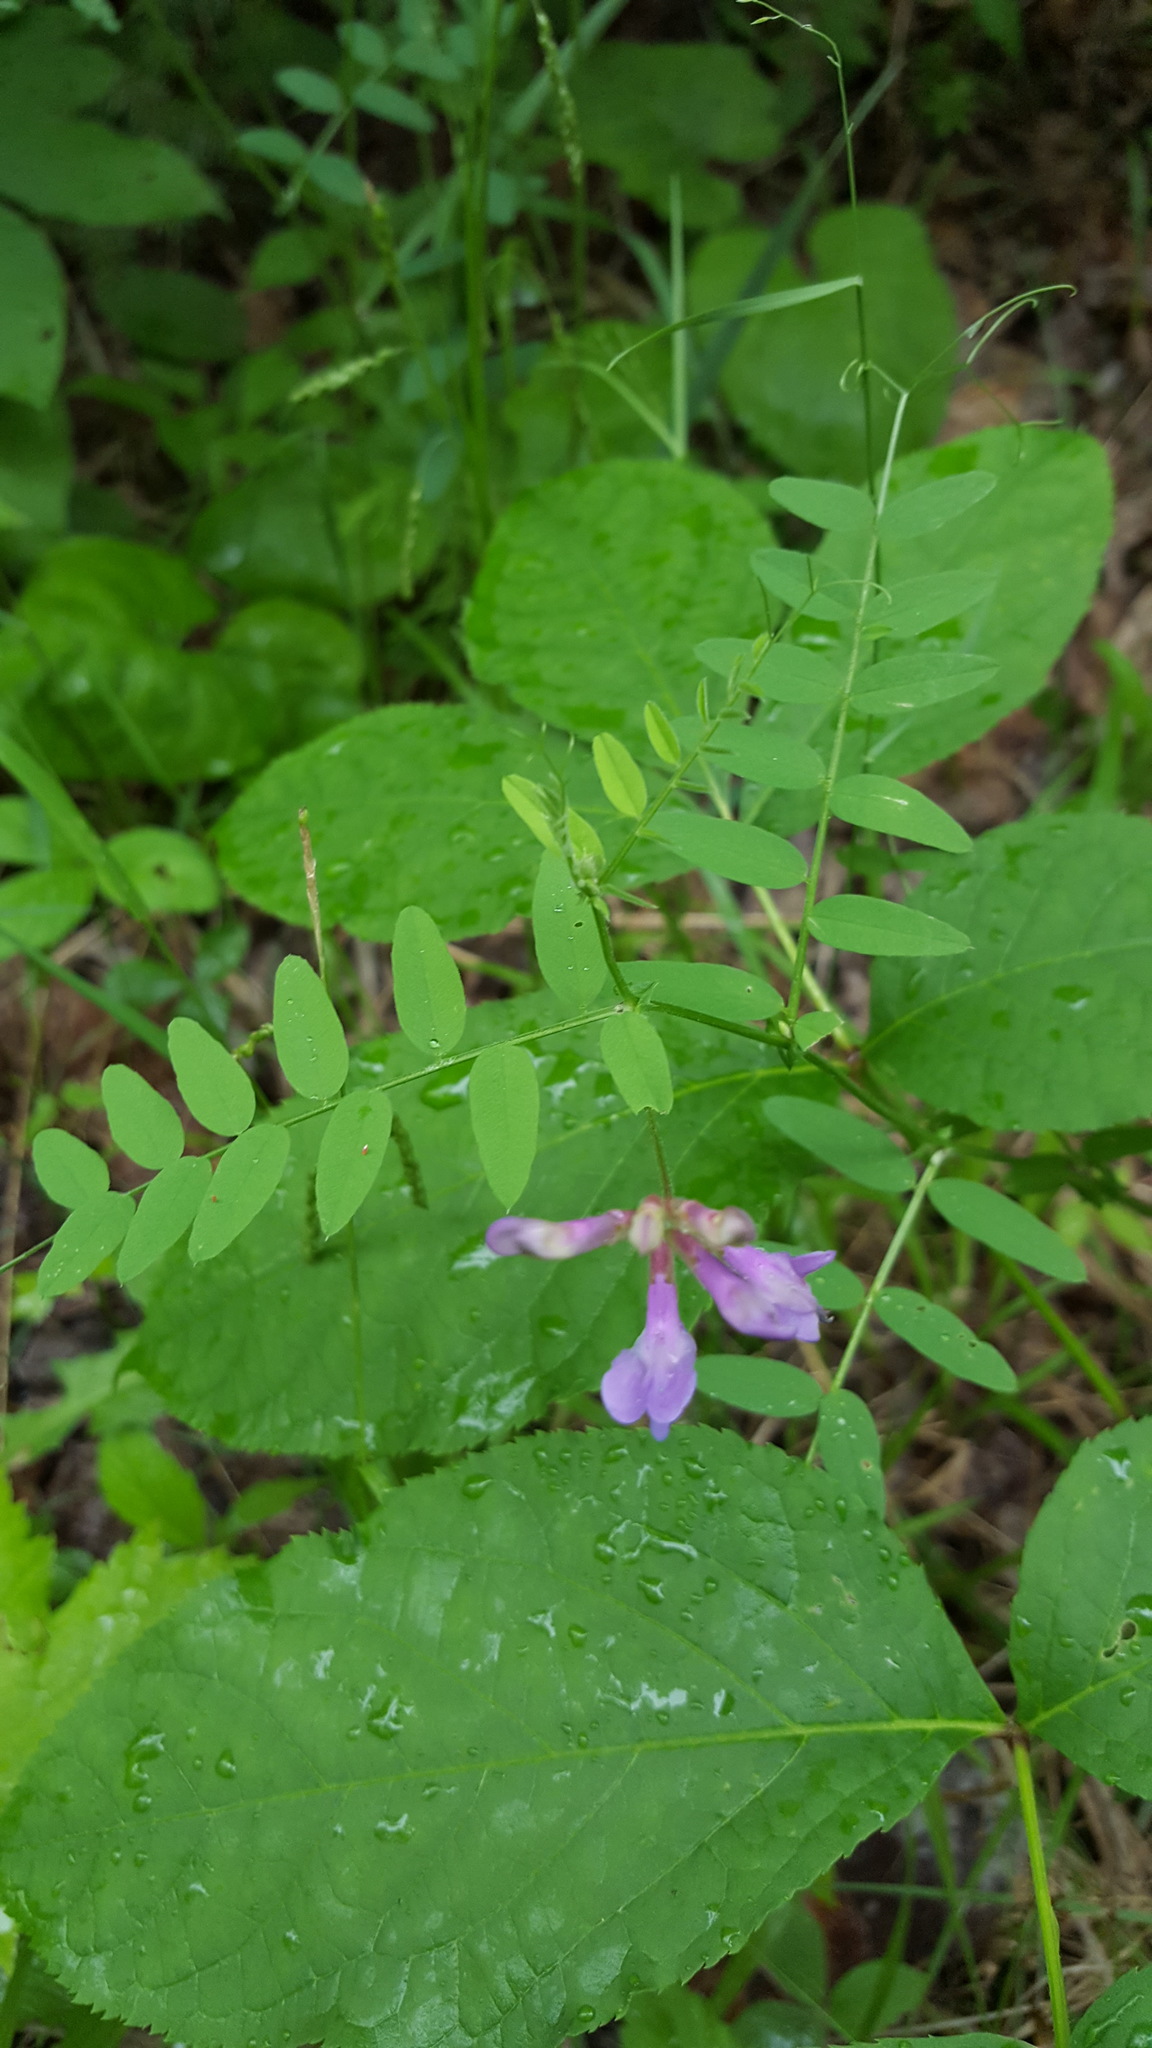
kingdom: Plantae
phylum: Tracheophyta
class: Magnoliopsida
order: Fabales
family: Fabaceae
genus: Vicia
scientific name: Vicia americana
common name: American vetch
